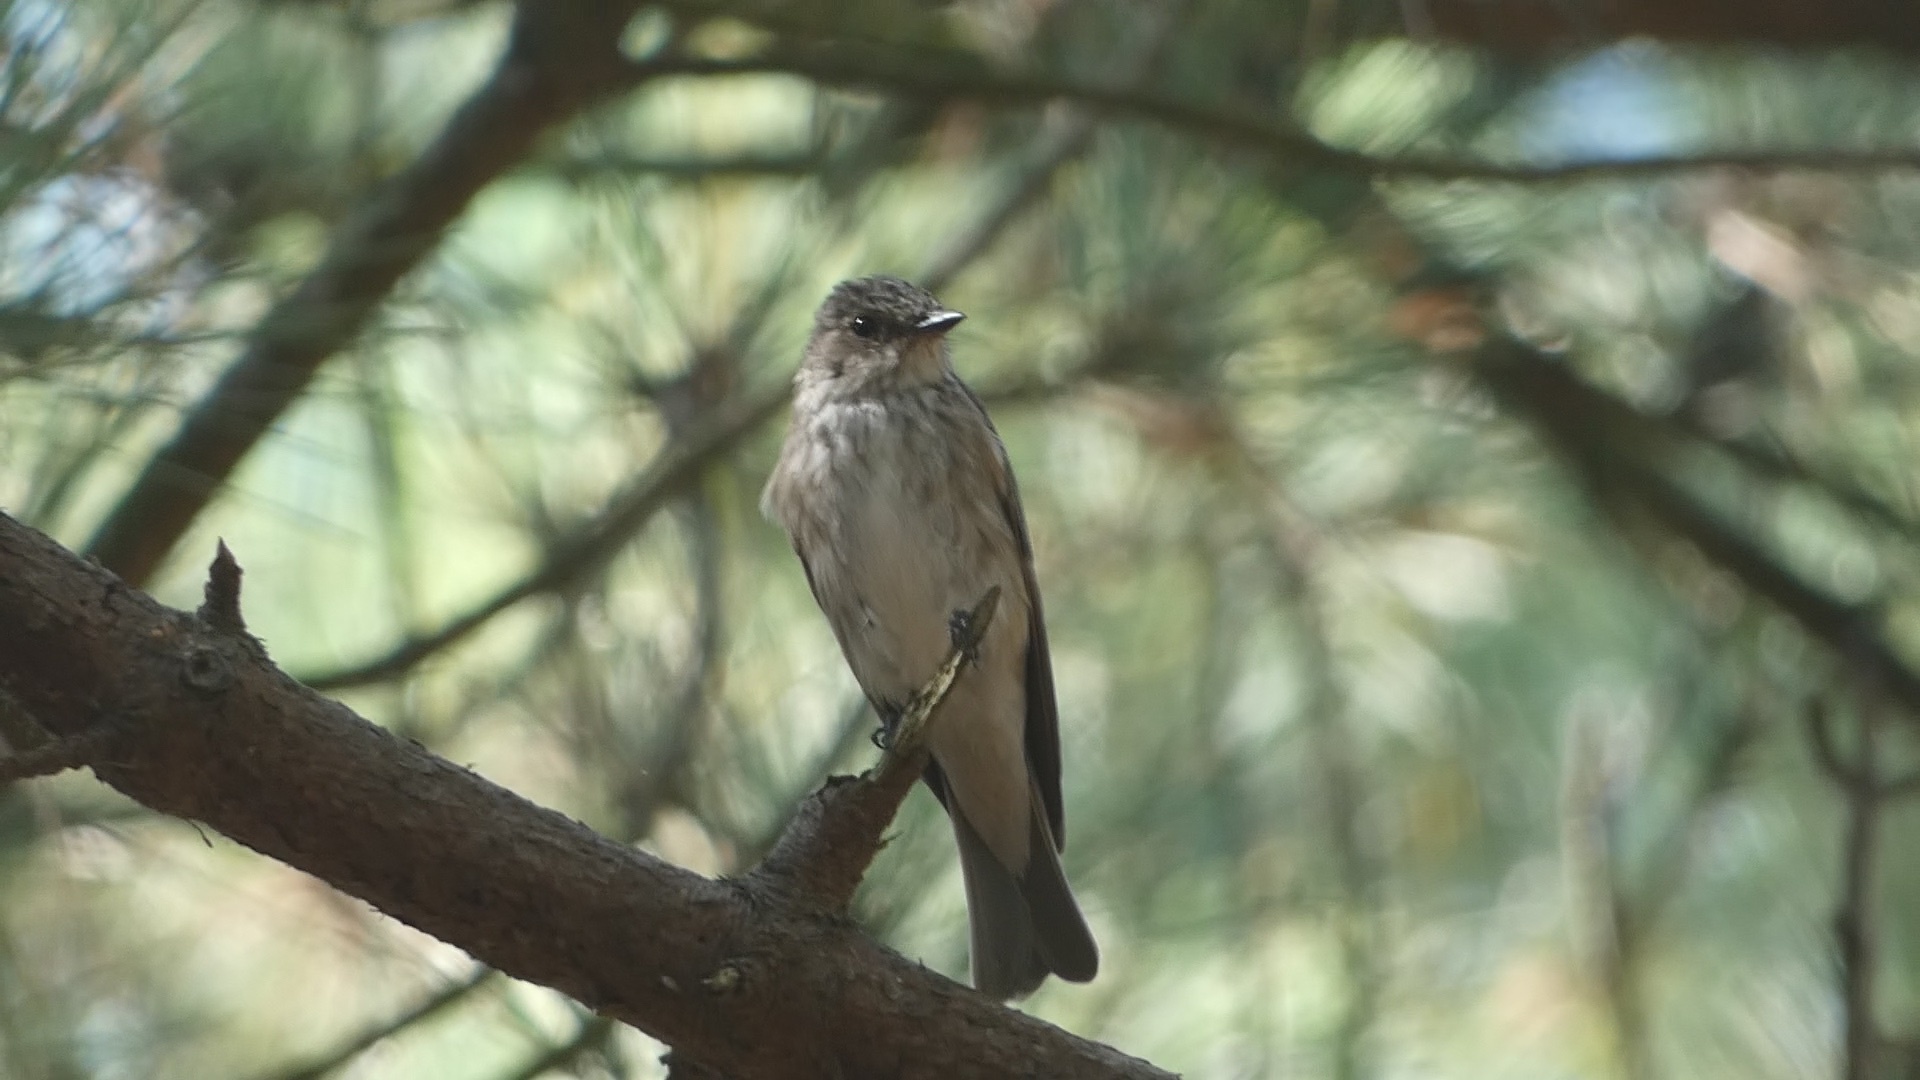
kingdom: Animalia
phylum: Chordata
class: Aves
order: Passeriformes
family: Muscicapidae
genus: Muscicapa
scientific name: Muscicapa striata
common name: Spotted flycatcher
